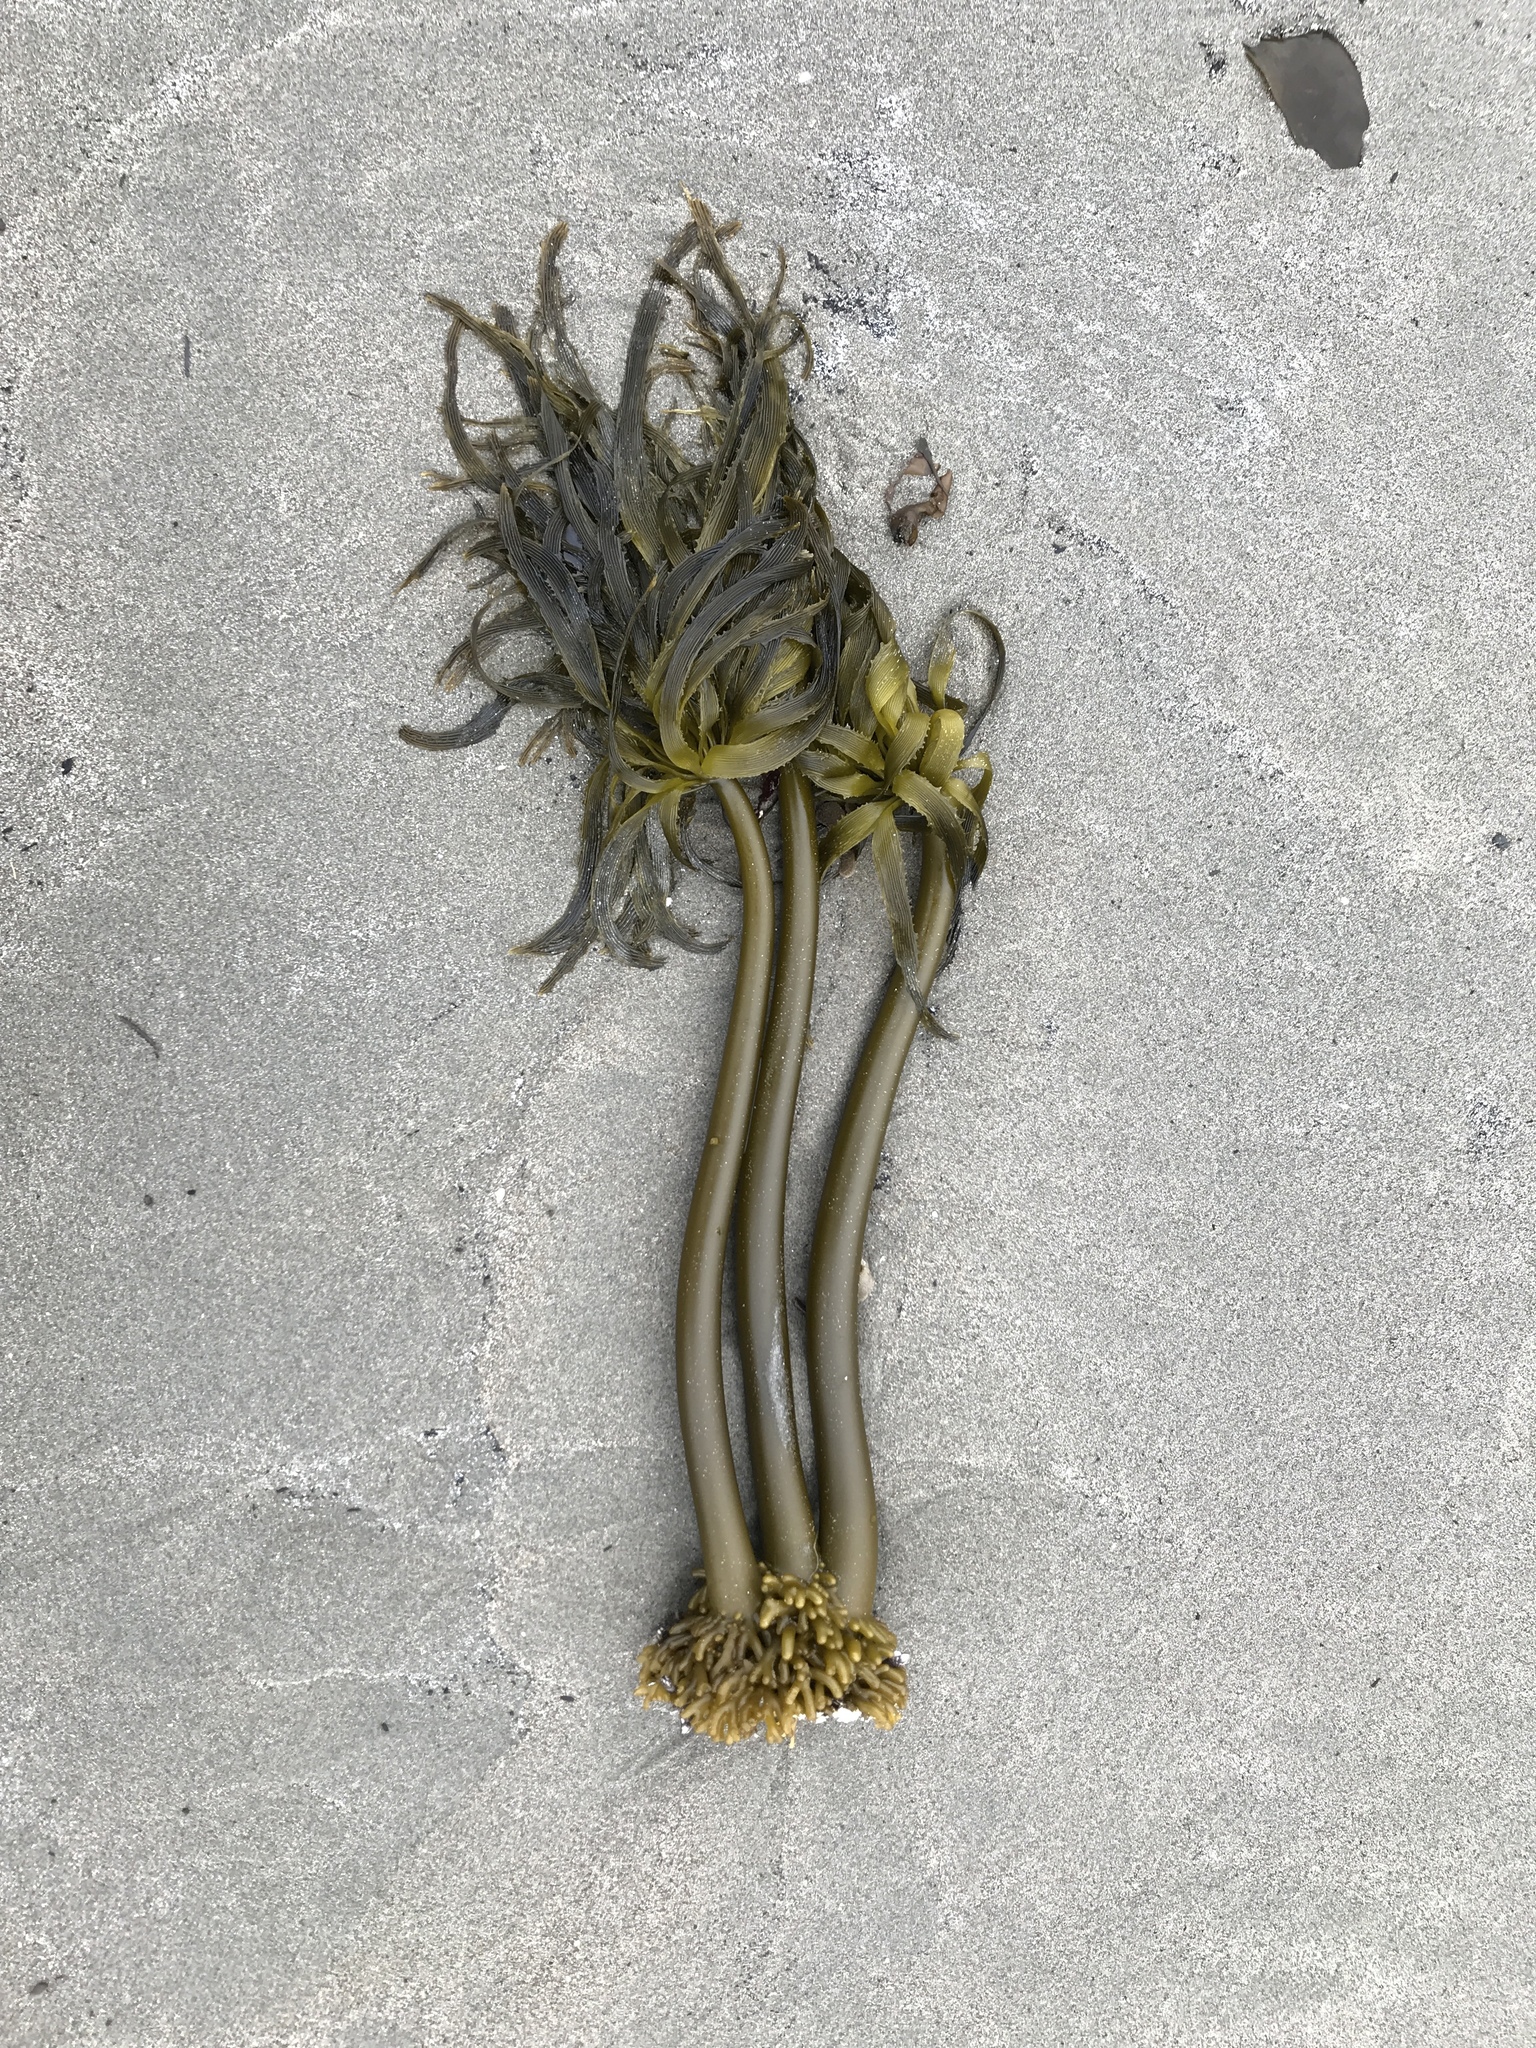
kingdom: Chromista
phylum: Ochrophyta
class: Phaeophyceae
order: Laminariales
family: Laminariaceae
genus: Postelsia
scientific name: Postelsia palmiformis
